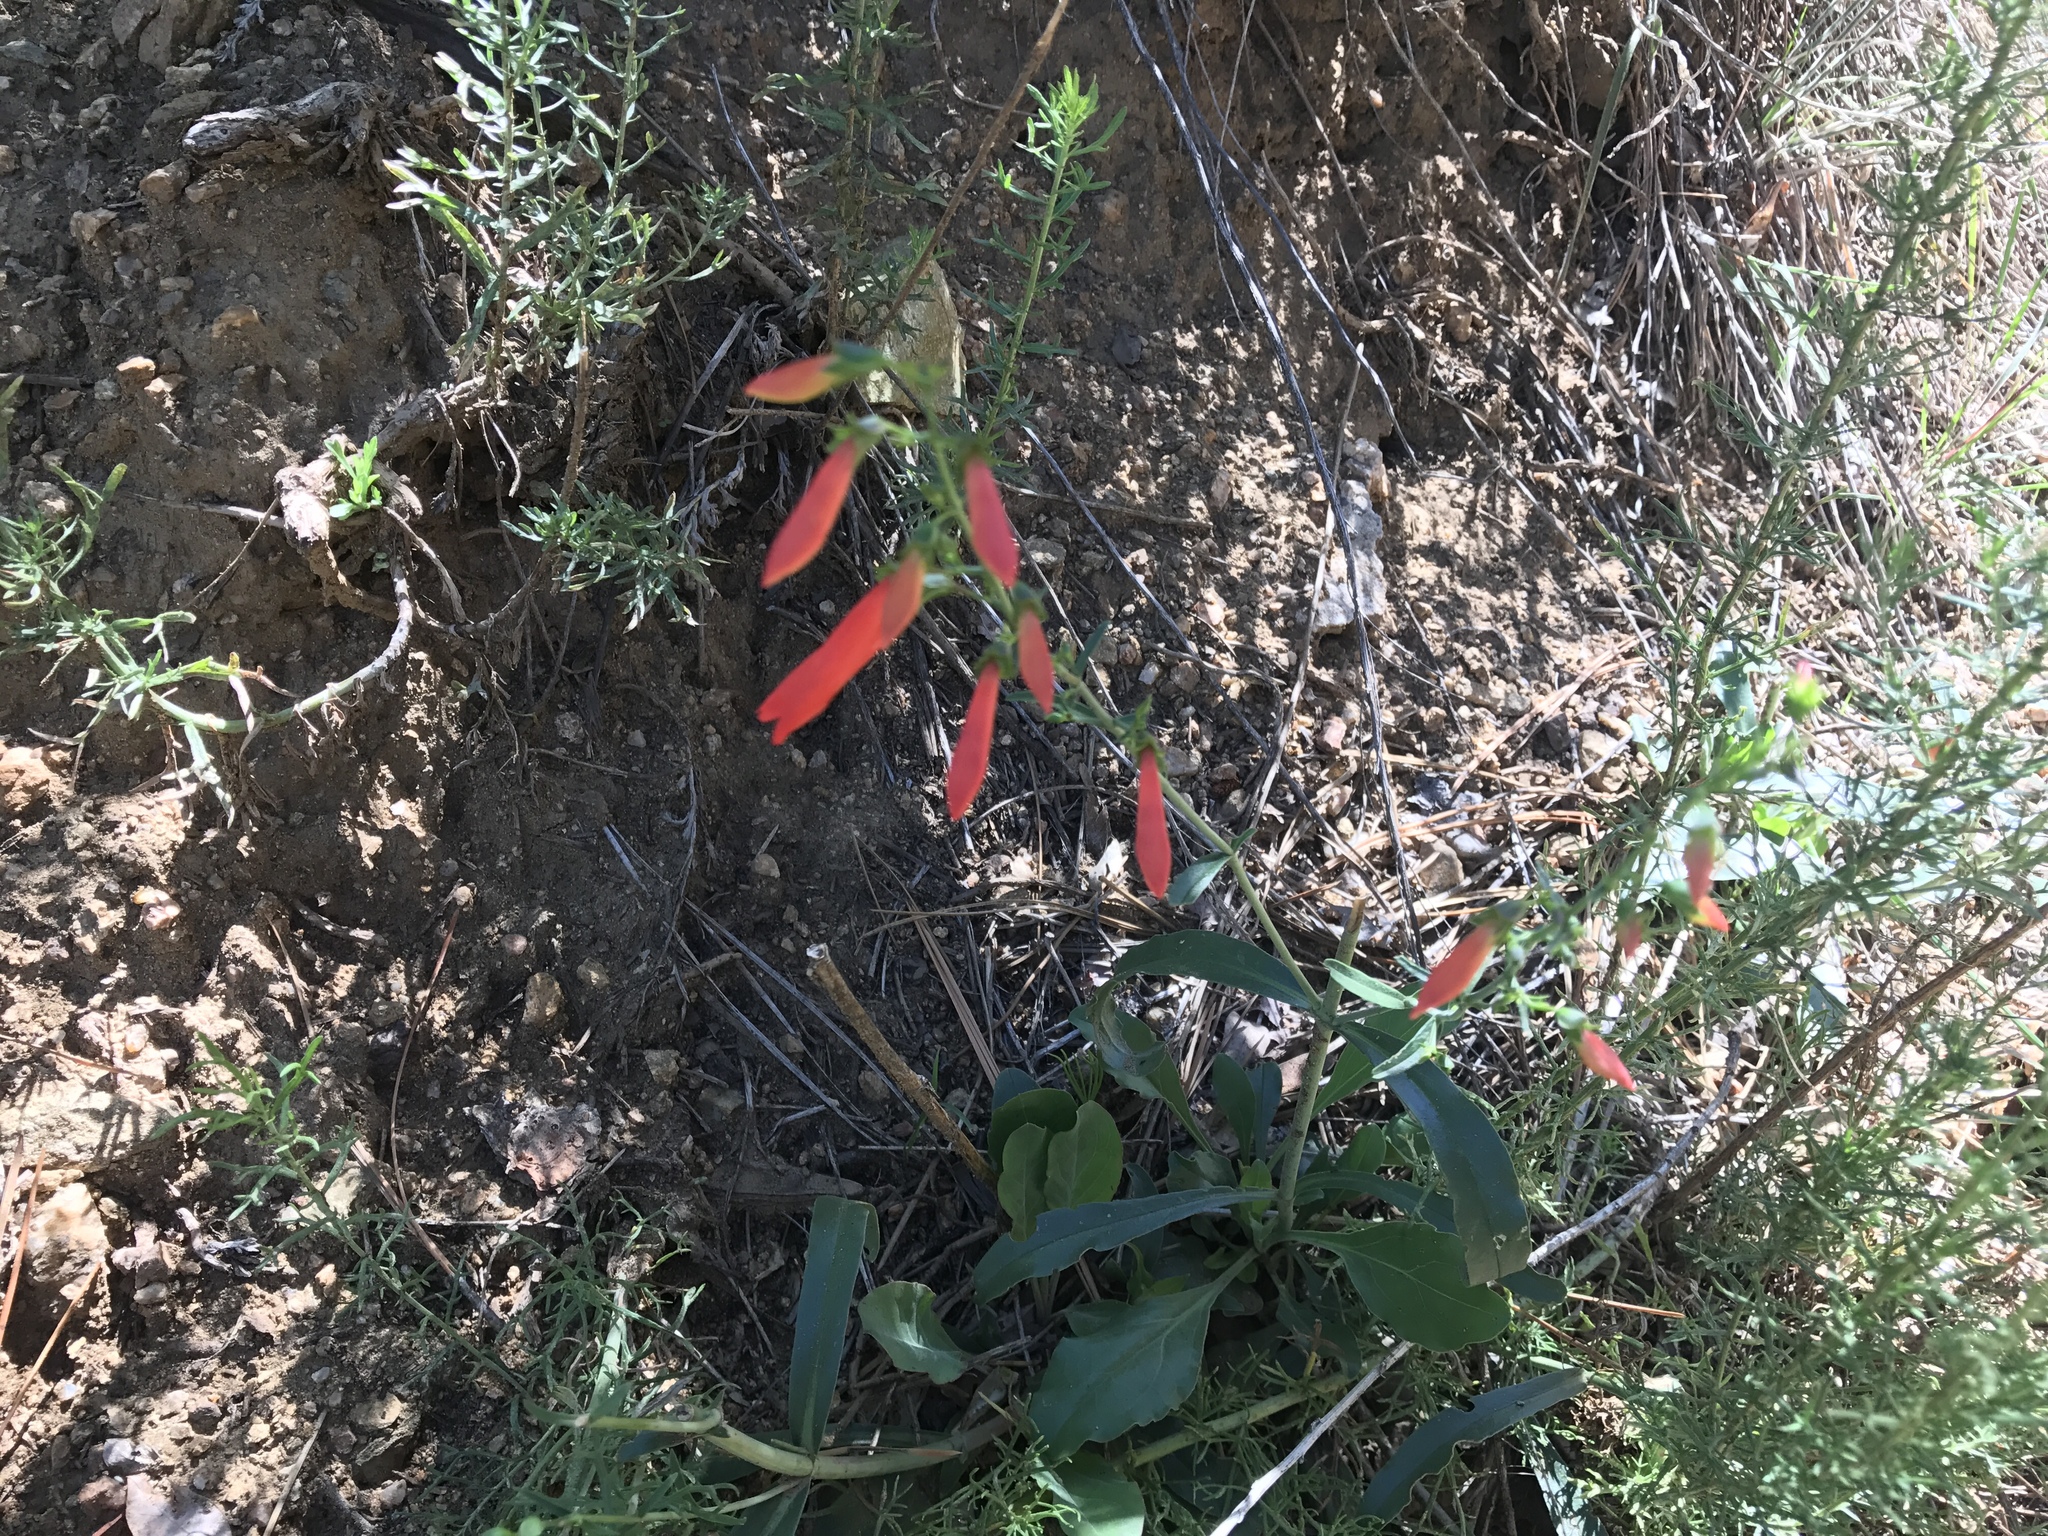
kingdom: Plantae
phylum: Tracheophyta
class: Magnoliopsida
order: Lamiales
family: Plantaginaceae
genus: Penstemon
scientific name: Penstemon barbatus
